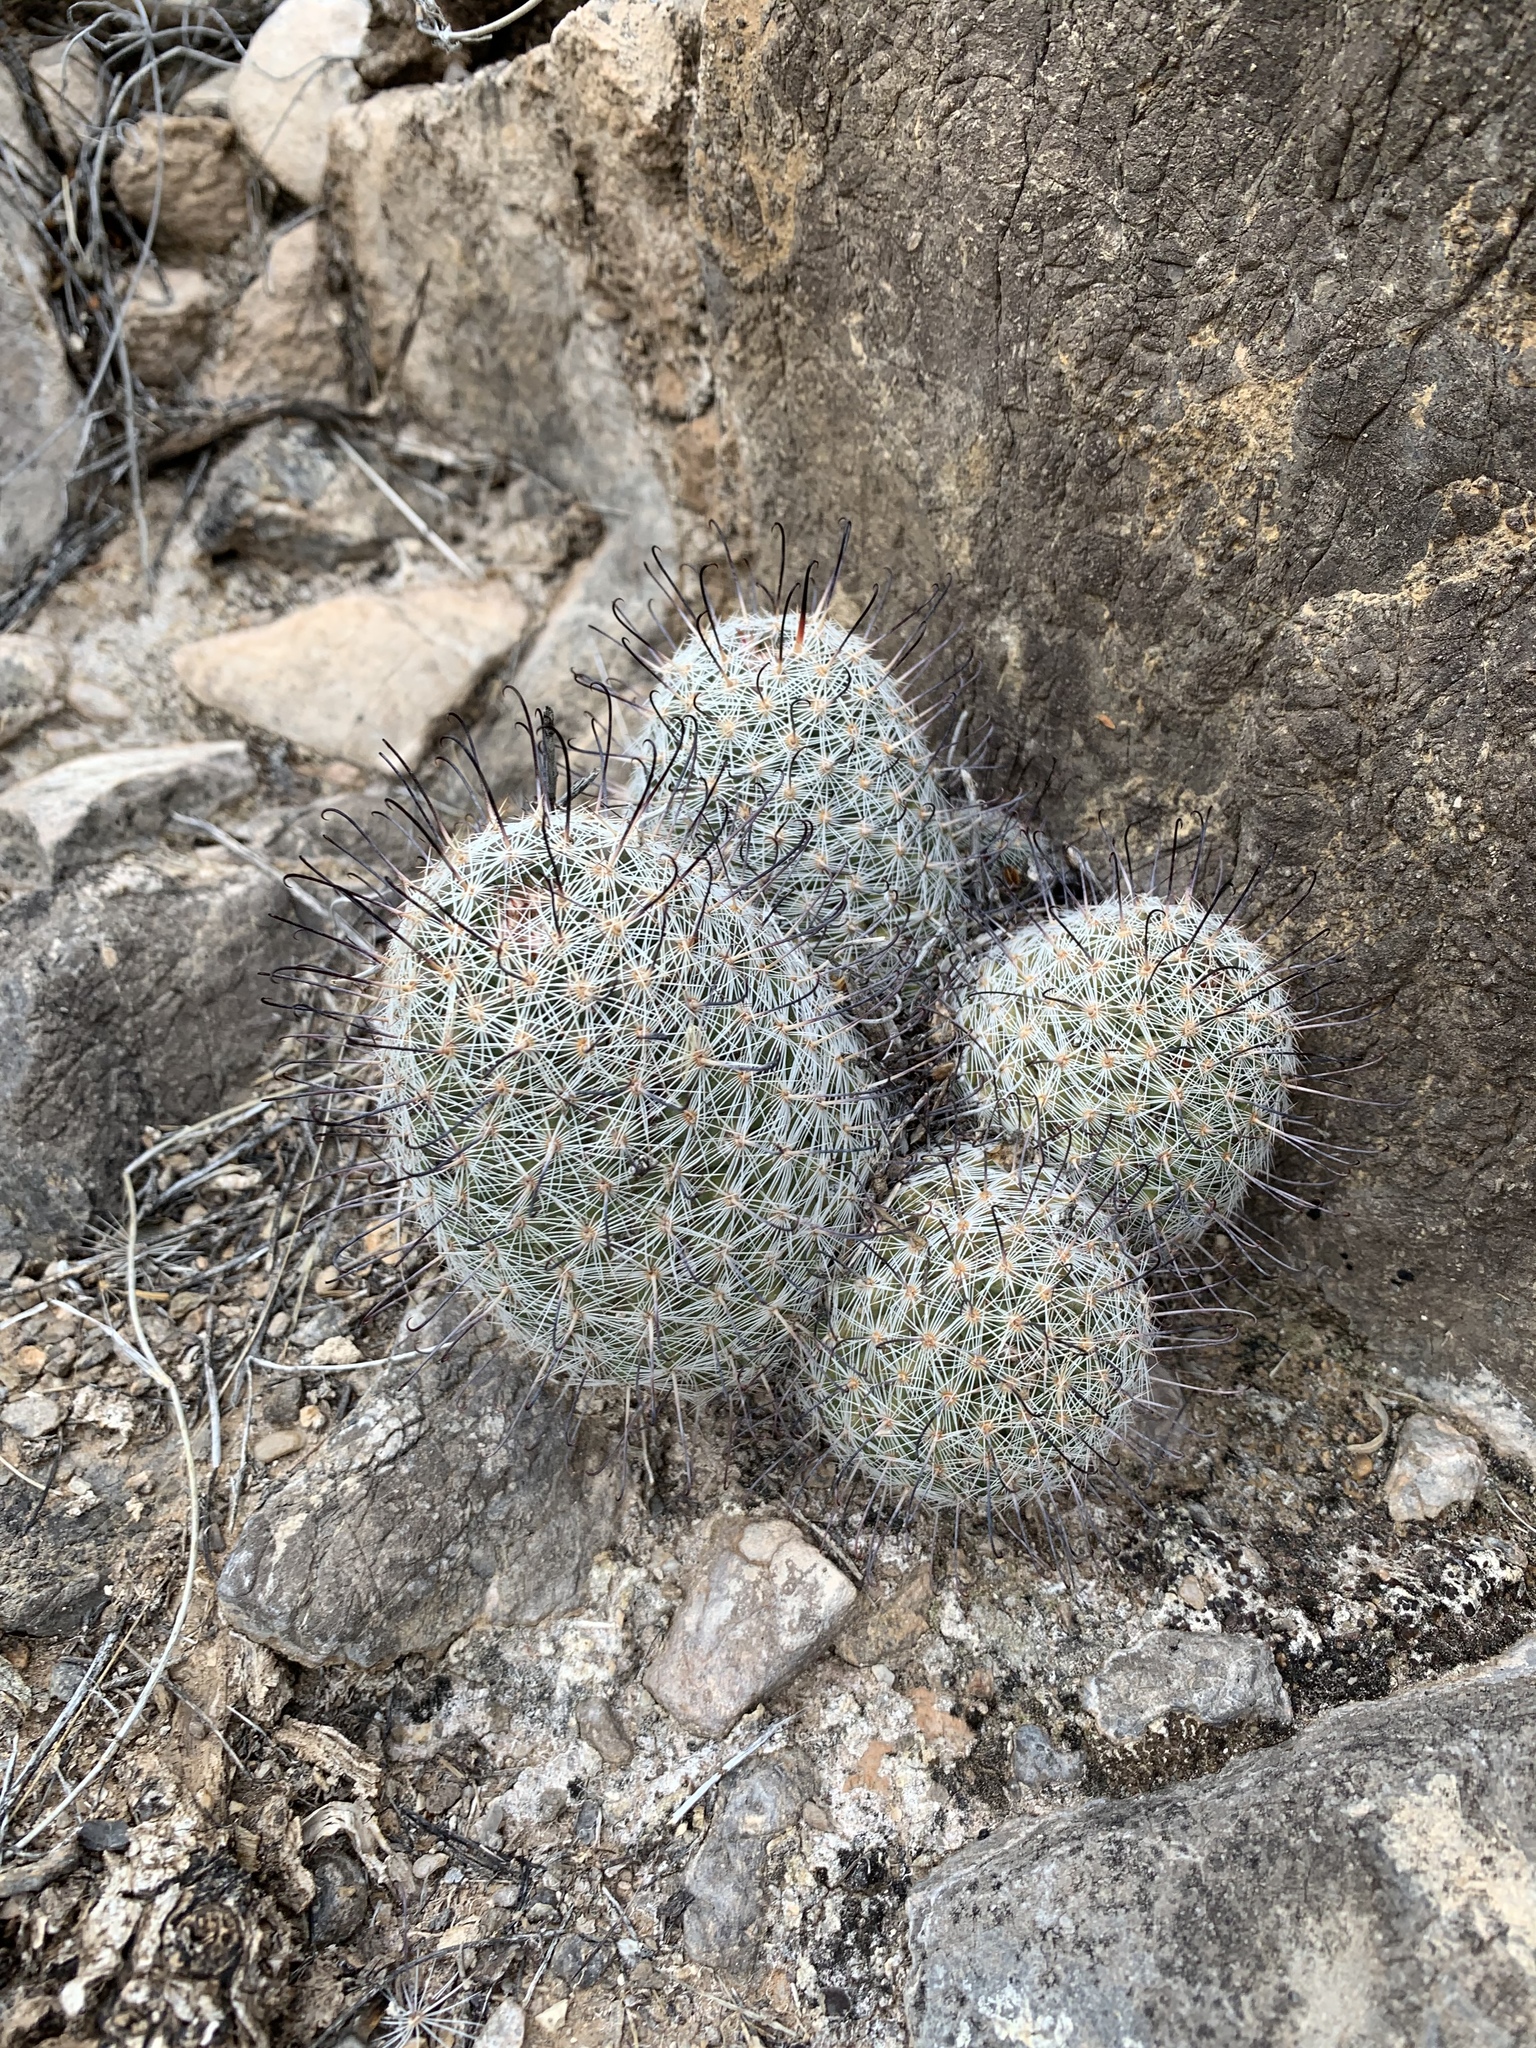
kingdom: Plantae
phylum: Tracheophyta
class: Magnoliopsida
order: Caryophyllales
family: Cactaceae
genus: Cochemiea
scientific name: Cochemiea grahamii
